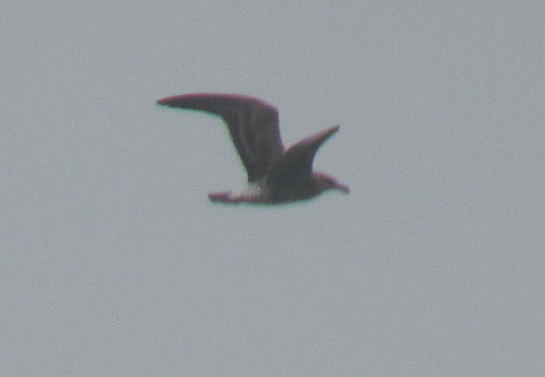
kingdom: Animalia
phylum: Chordata
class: Aves
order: Charadriiformes
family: Laridae
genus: Larus
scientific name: Larus dominicanus
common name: Kelp gull
